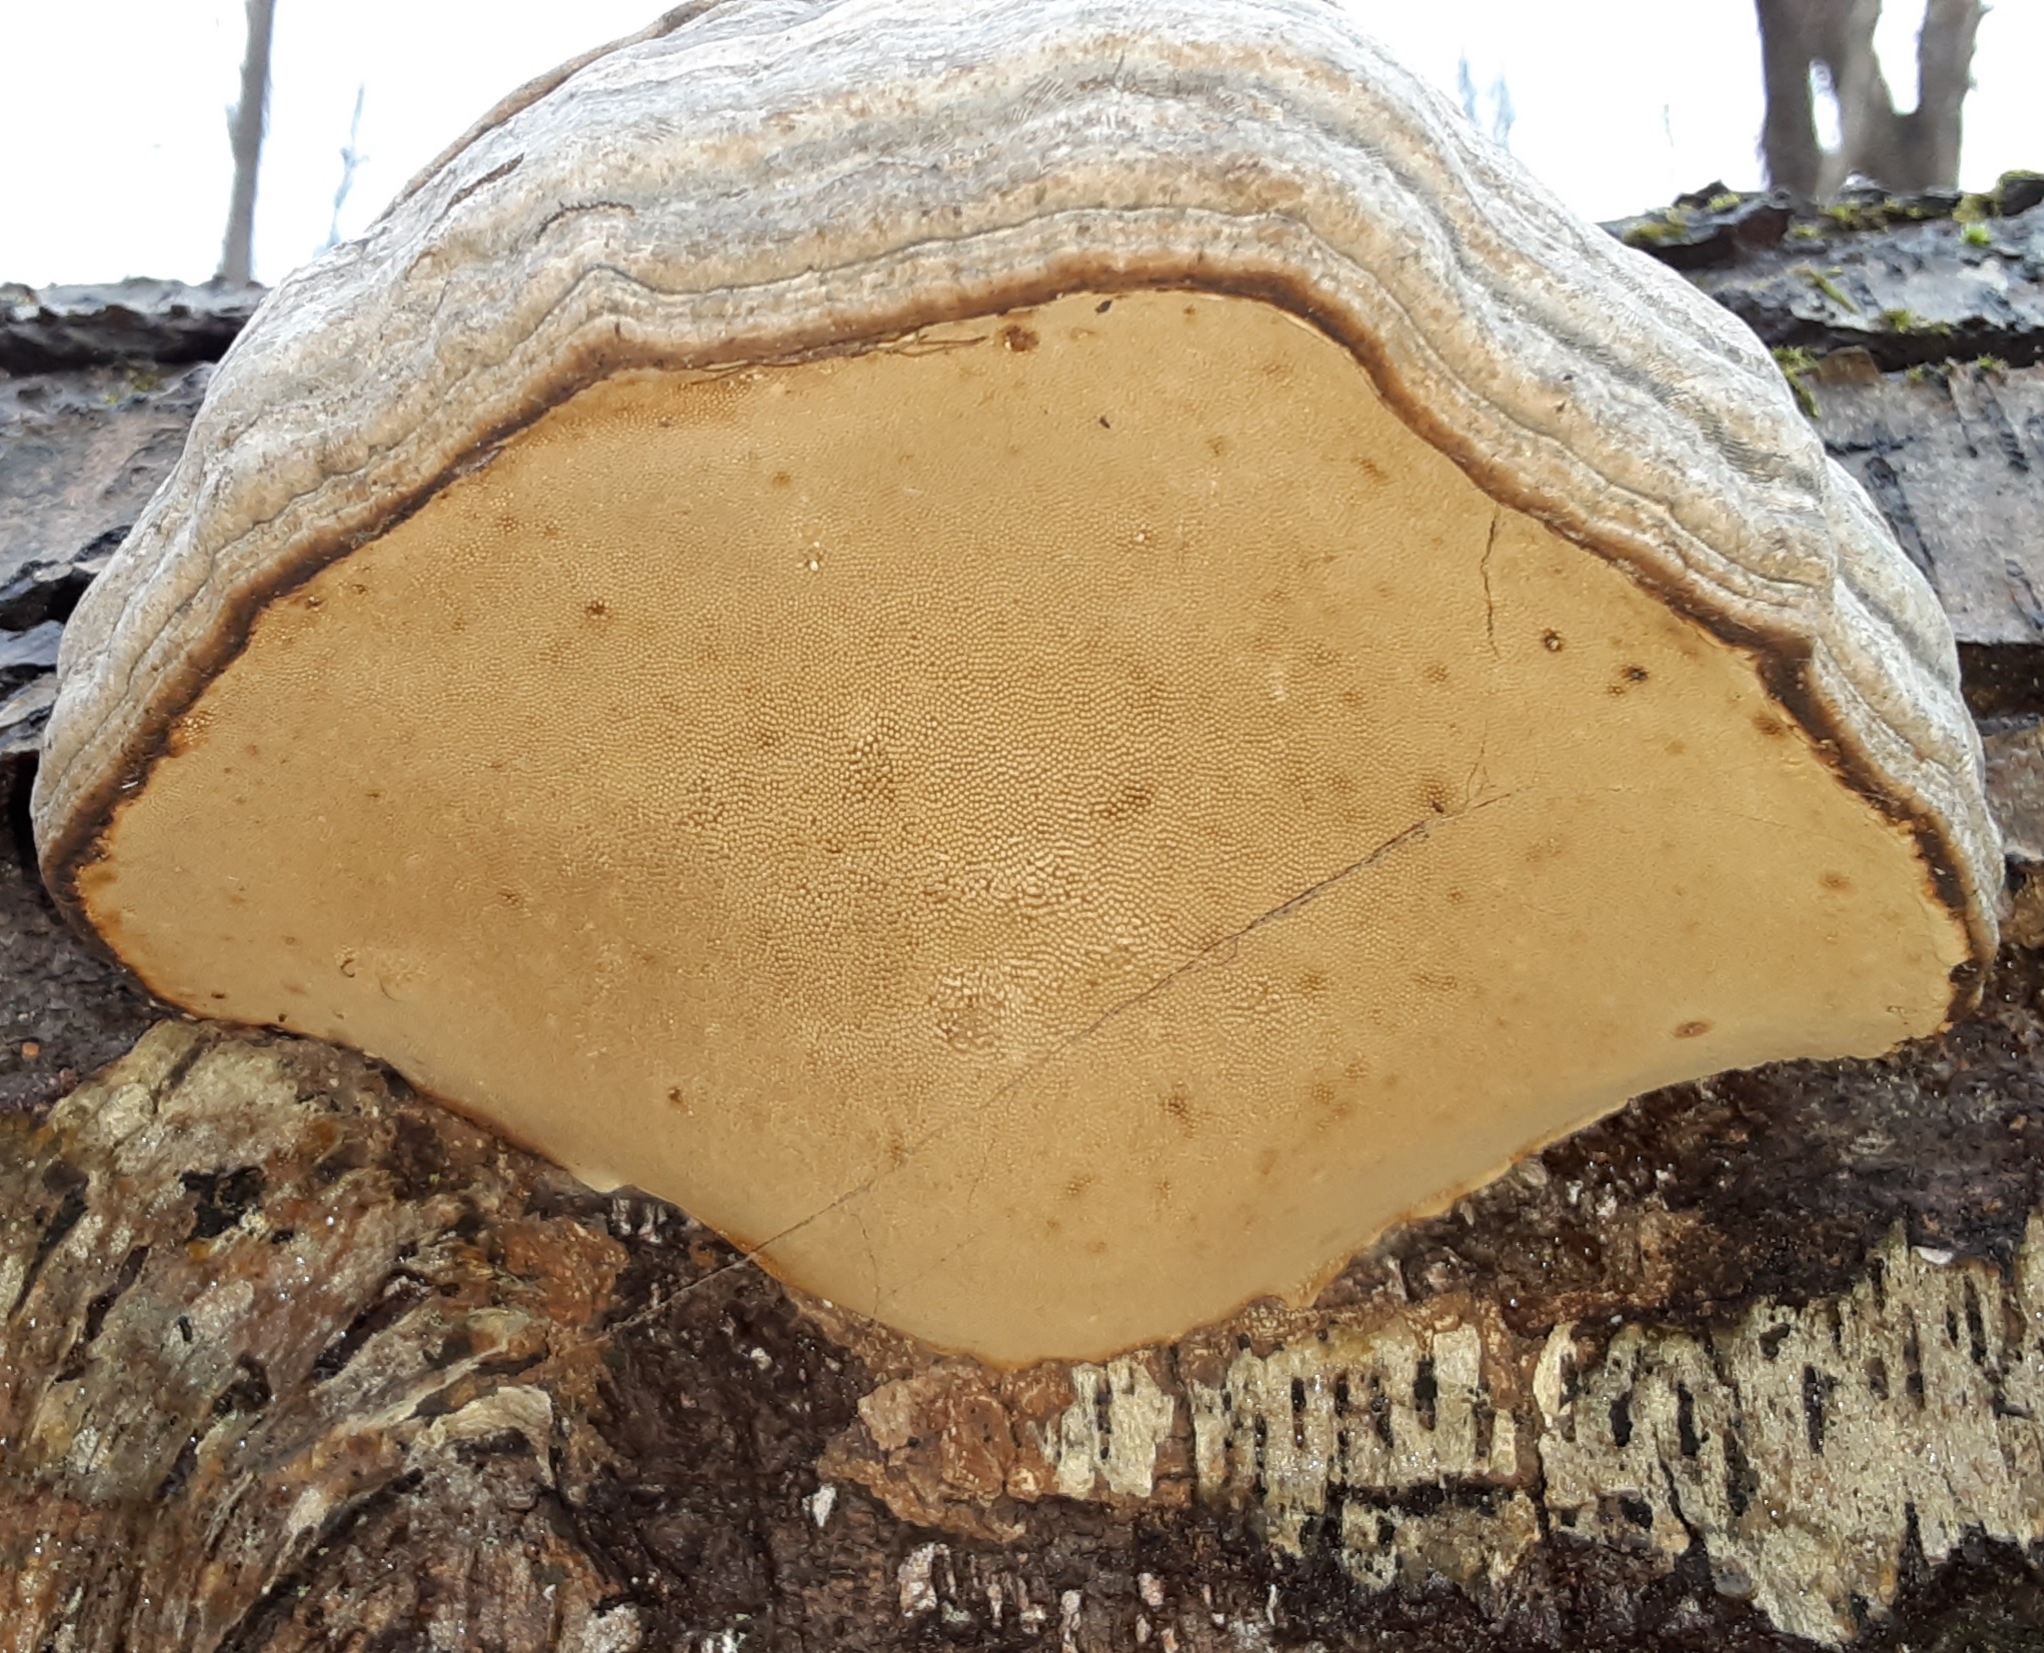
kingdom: Fungi
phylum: Basidiomycota
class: Agaricomycetes
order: Polyporales
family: Polyporaceae
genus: Fomes
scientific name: Fomes fomentarius
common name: Hoof fungus
